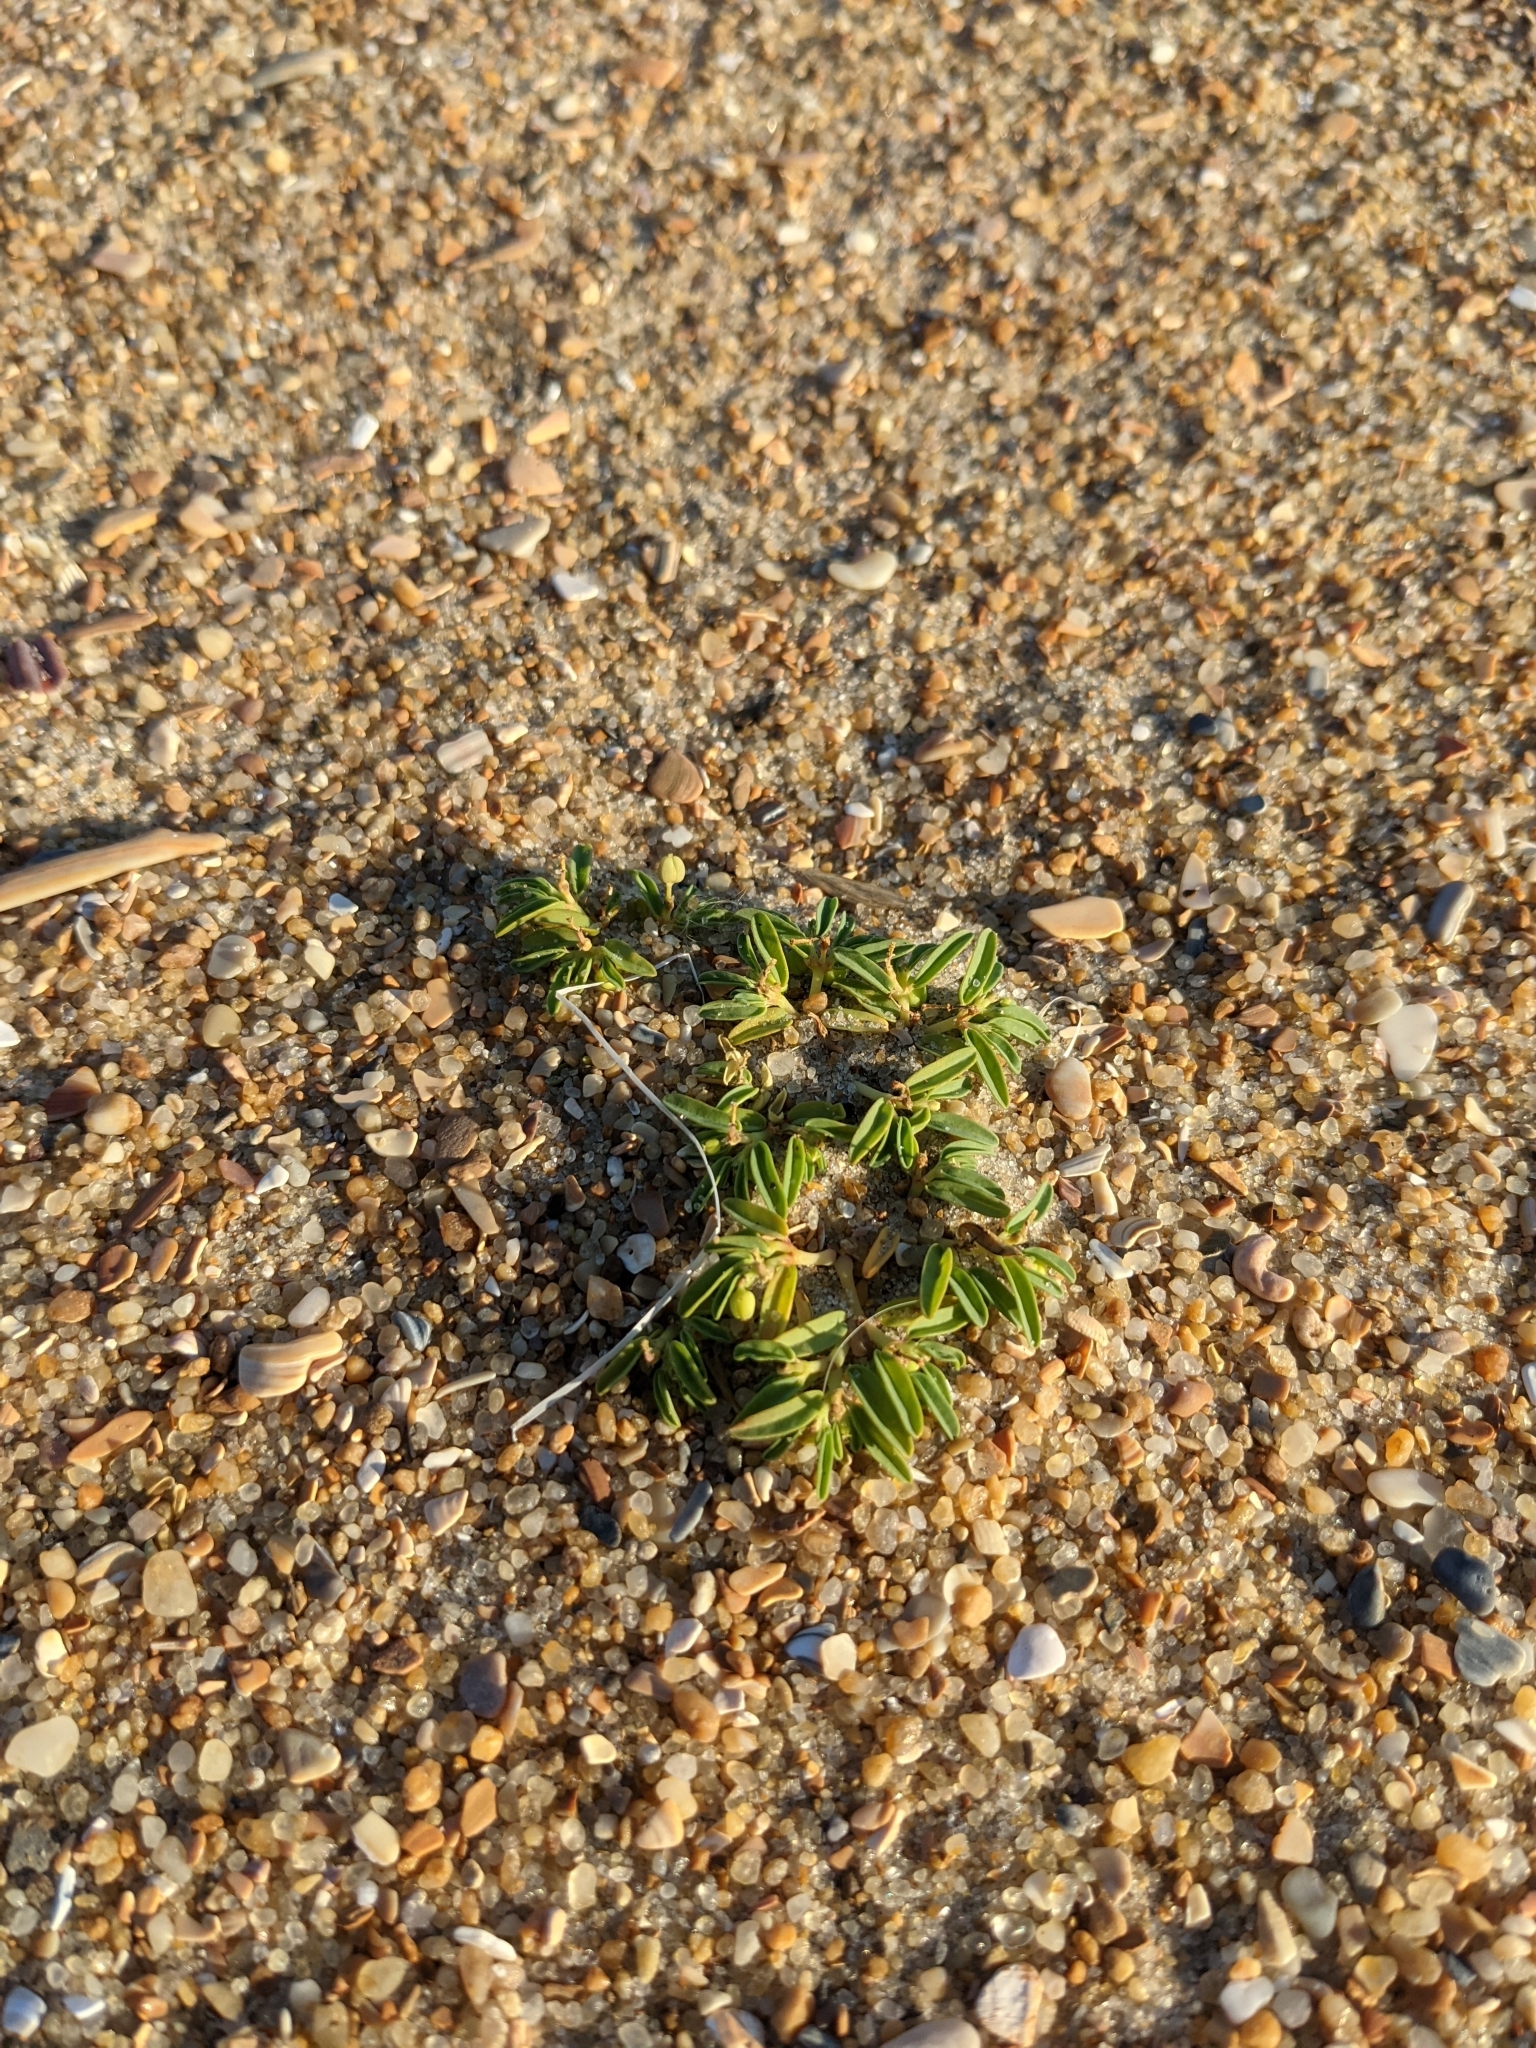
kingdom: Plantae
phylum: Tracheophyta
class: Magnoliopsida
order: Malpighiales
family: Euphorbiaceae
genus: Euphorbia
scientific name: Euphorbia polygonifolia
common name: Knotweed spurge
